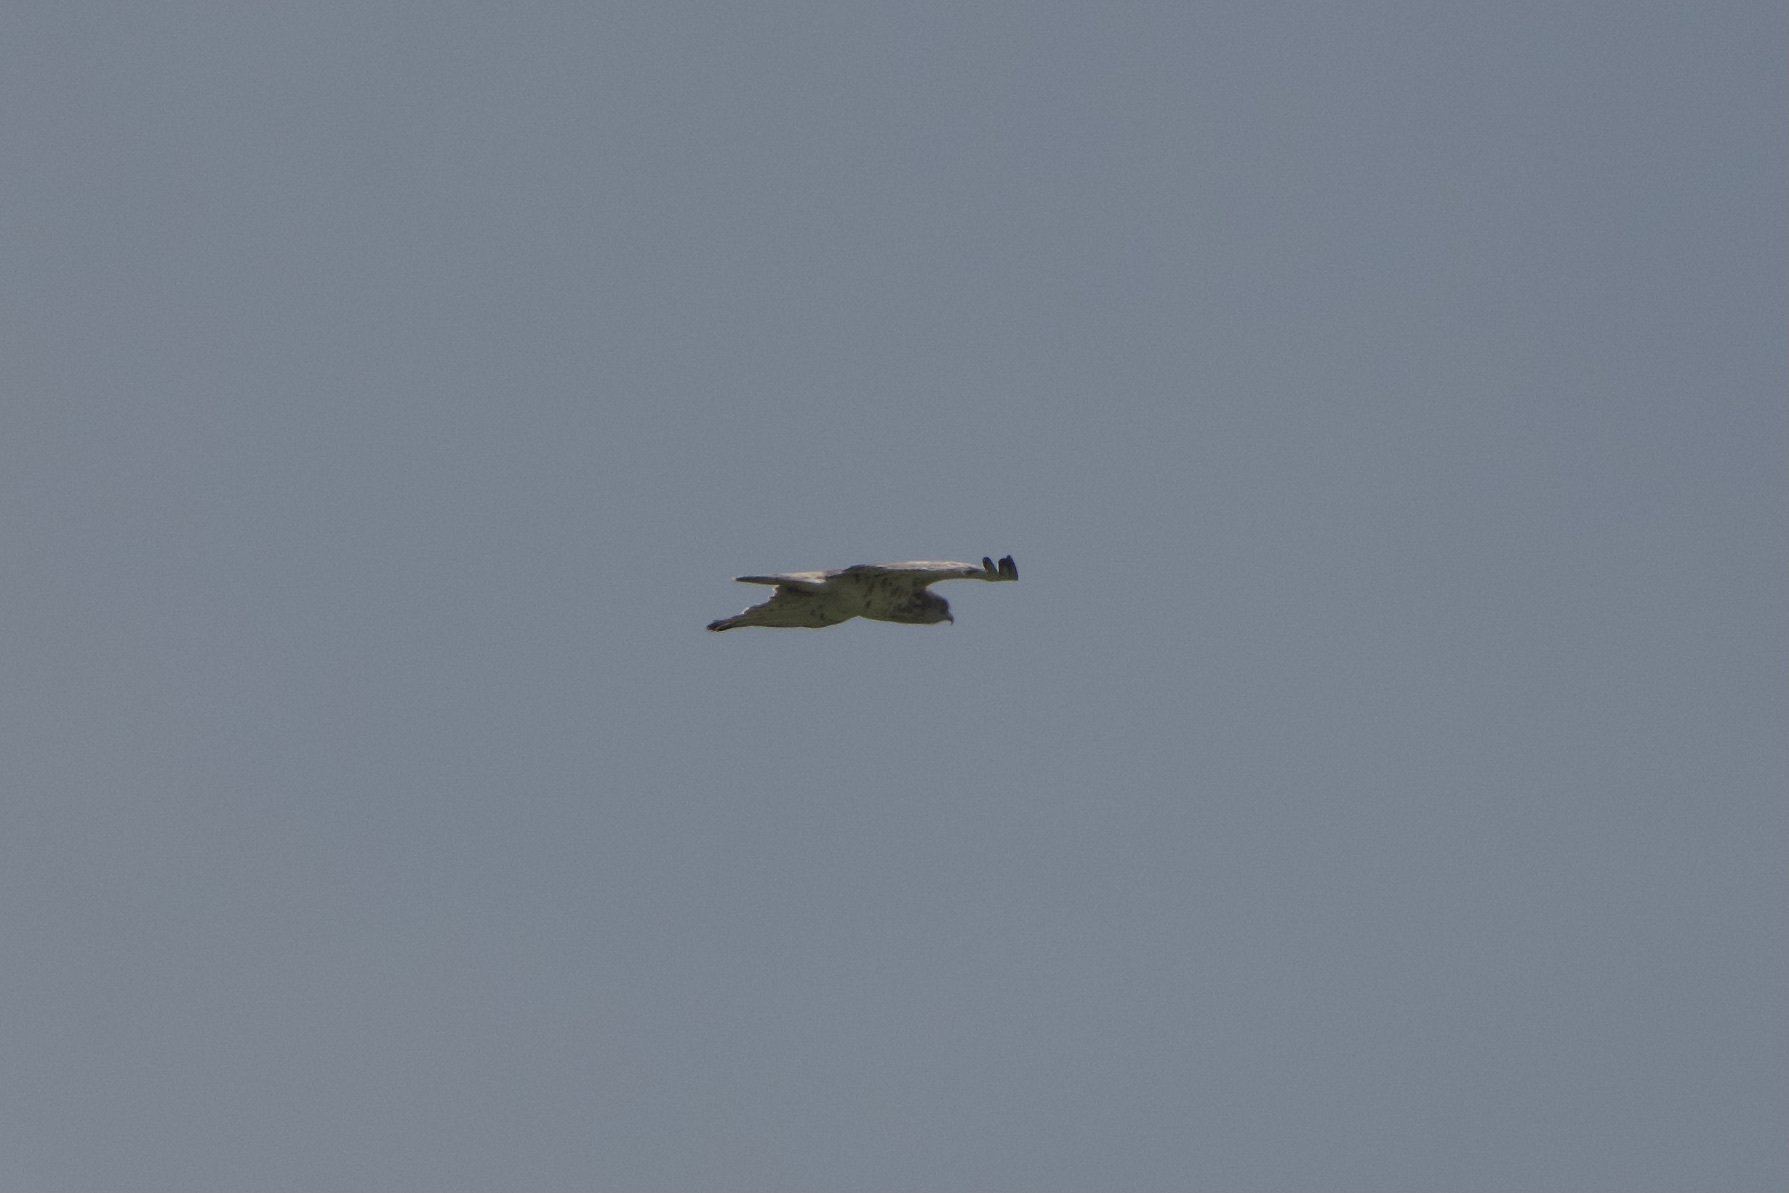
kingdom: Animalia
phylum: Chordata
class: Aves
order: Accipitriformes
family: Accipitridae
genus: Circaetus
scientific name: Circaetus gallicus
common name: Short-toed snake eagle
